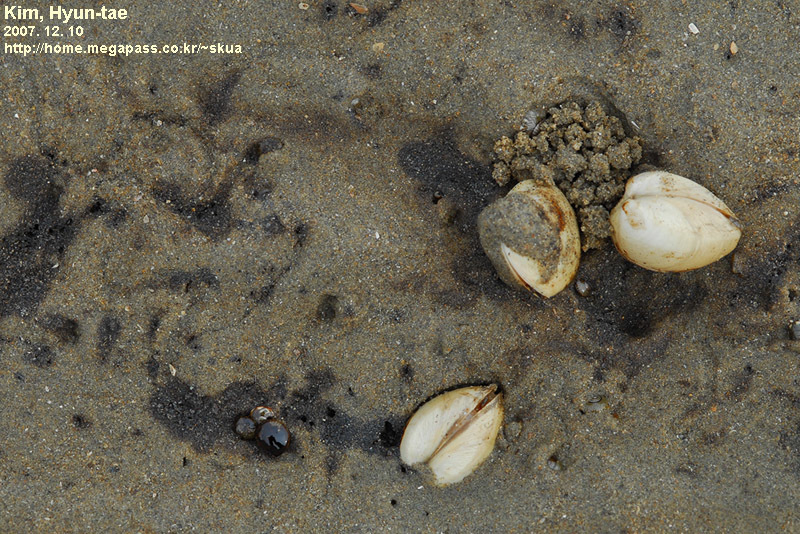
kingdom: Animalia
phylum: Mollusca
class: Bivalvia
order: Venerida
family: Mactridae
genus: Mactra
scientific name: Mactra quadrangularis
